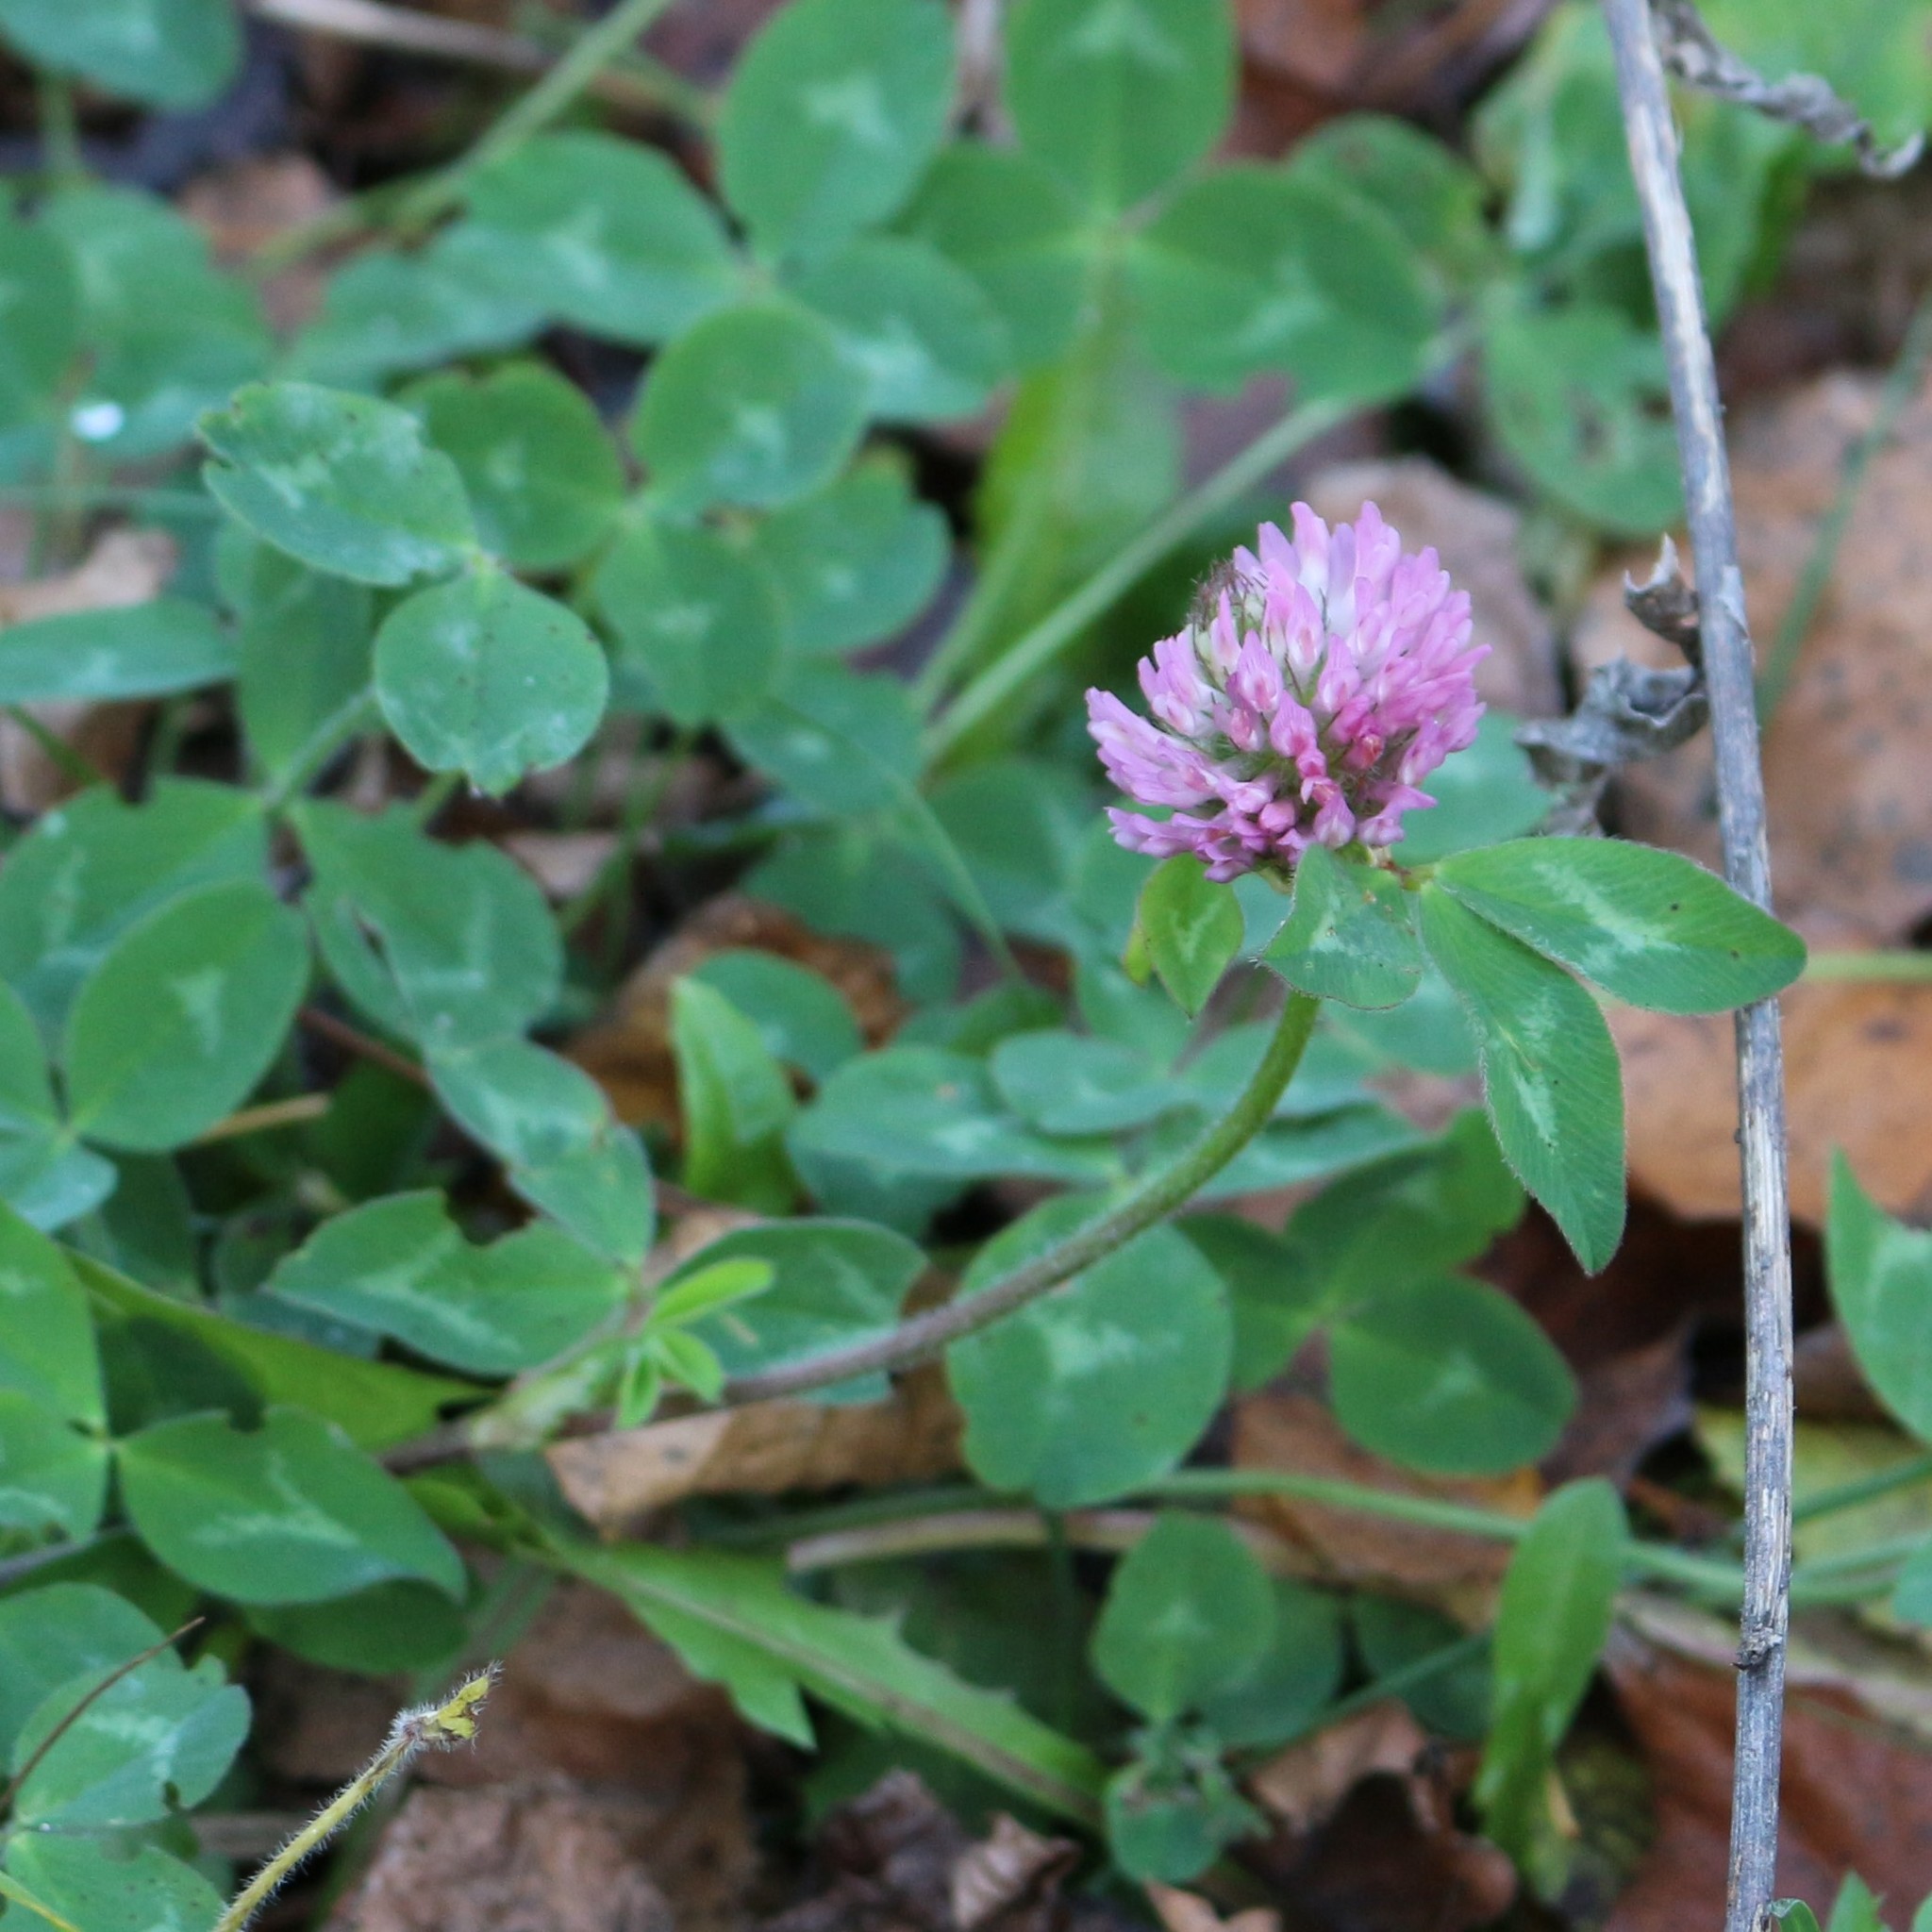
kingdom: Plantae
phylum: Tracheophyta
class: Magnoliopsida
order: Fabales
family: Fabaceae
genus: Trifolium
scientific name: Trifolium pratense
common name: Red clover
